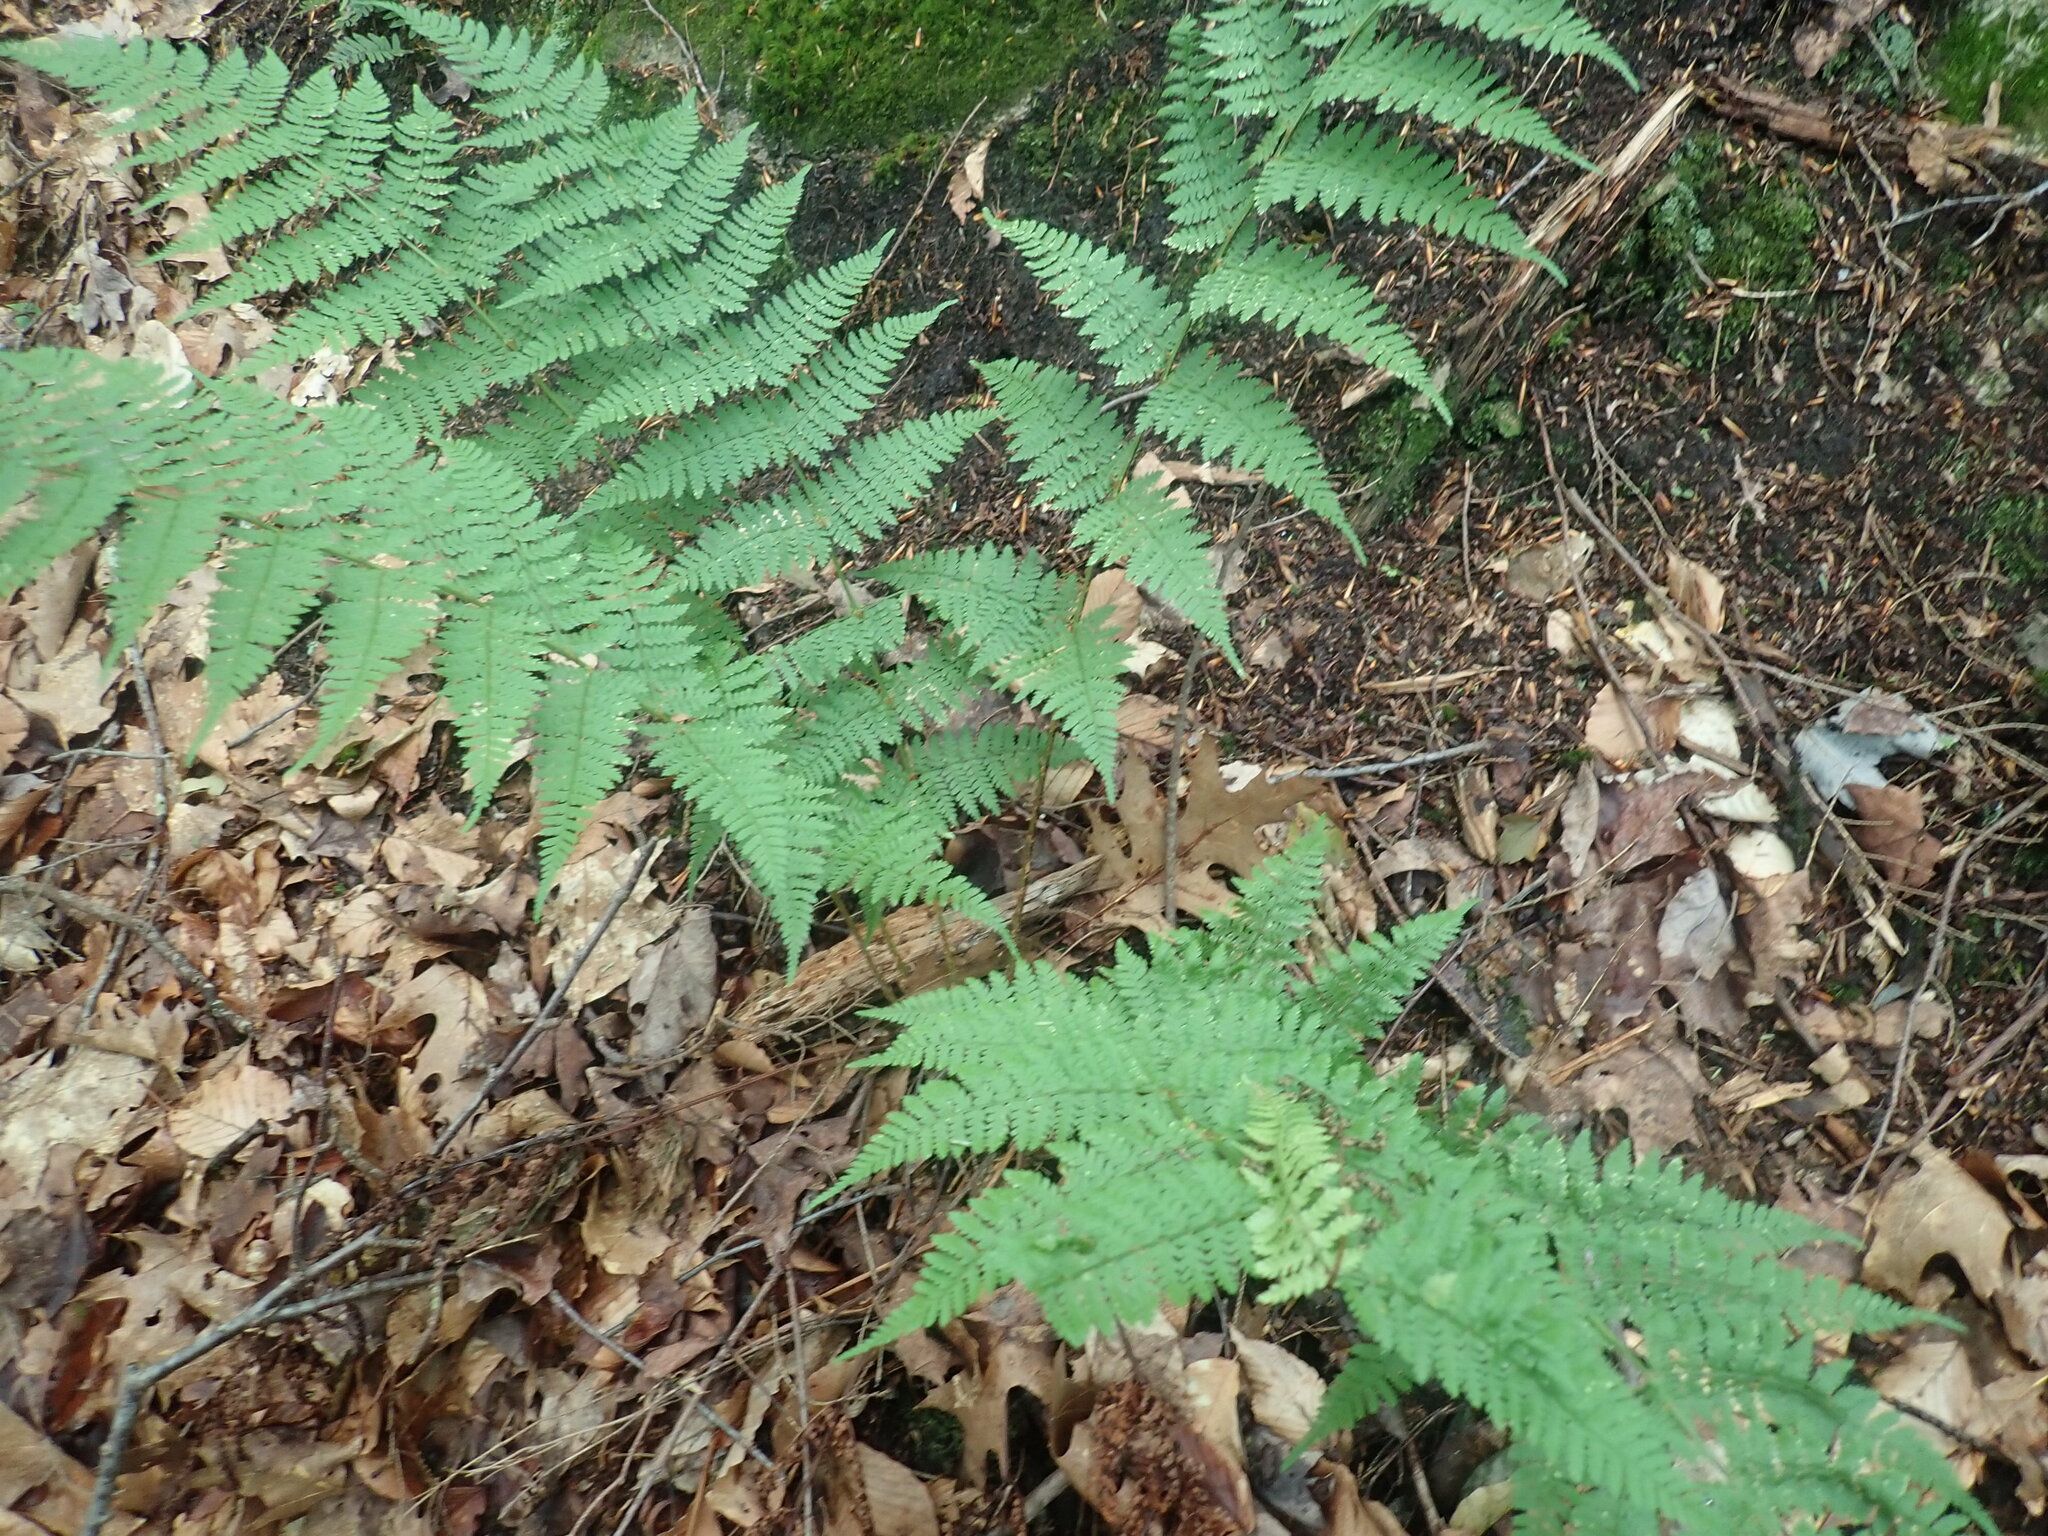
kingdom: Plantae
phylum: Tracheophyta
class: Polypodiopsida
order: Polypodiales
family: Dryopteridaceae
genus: Dryopteris
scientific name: Dryopteris intermedia
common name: Evergreen wood fern
